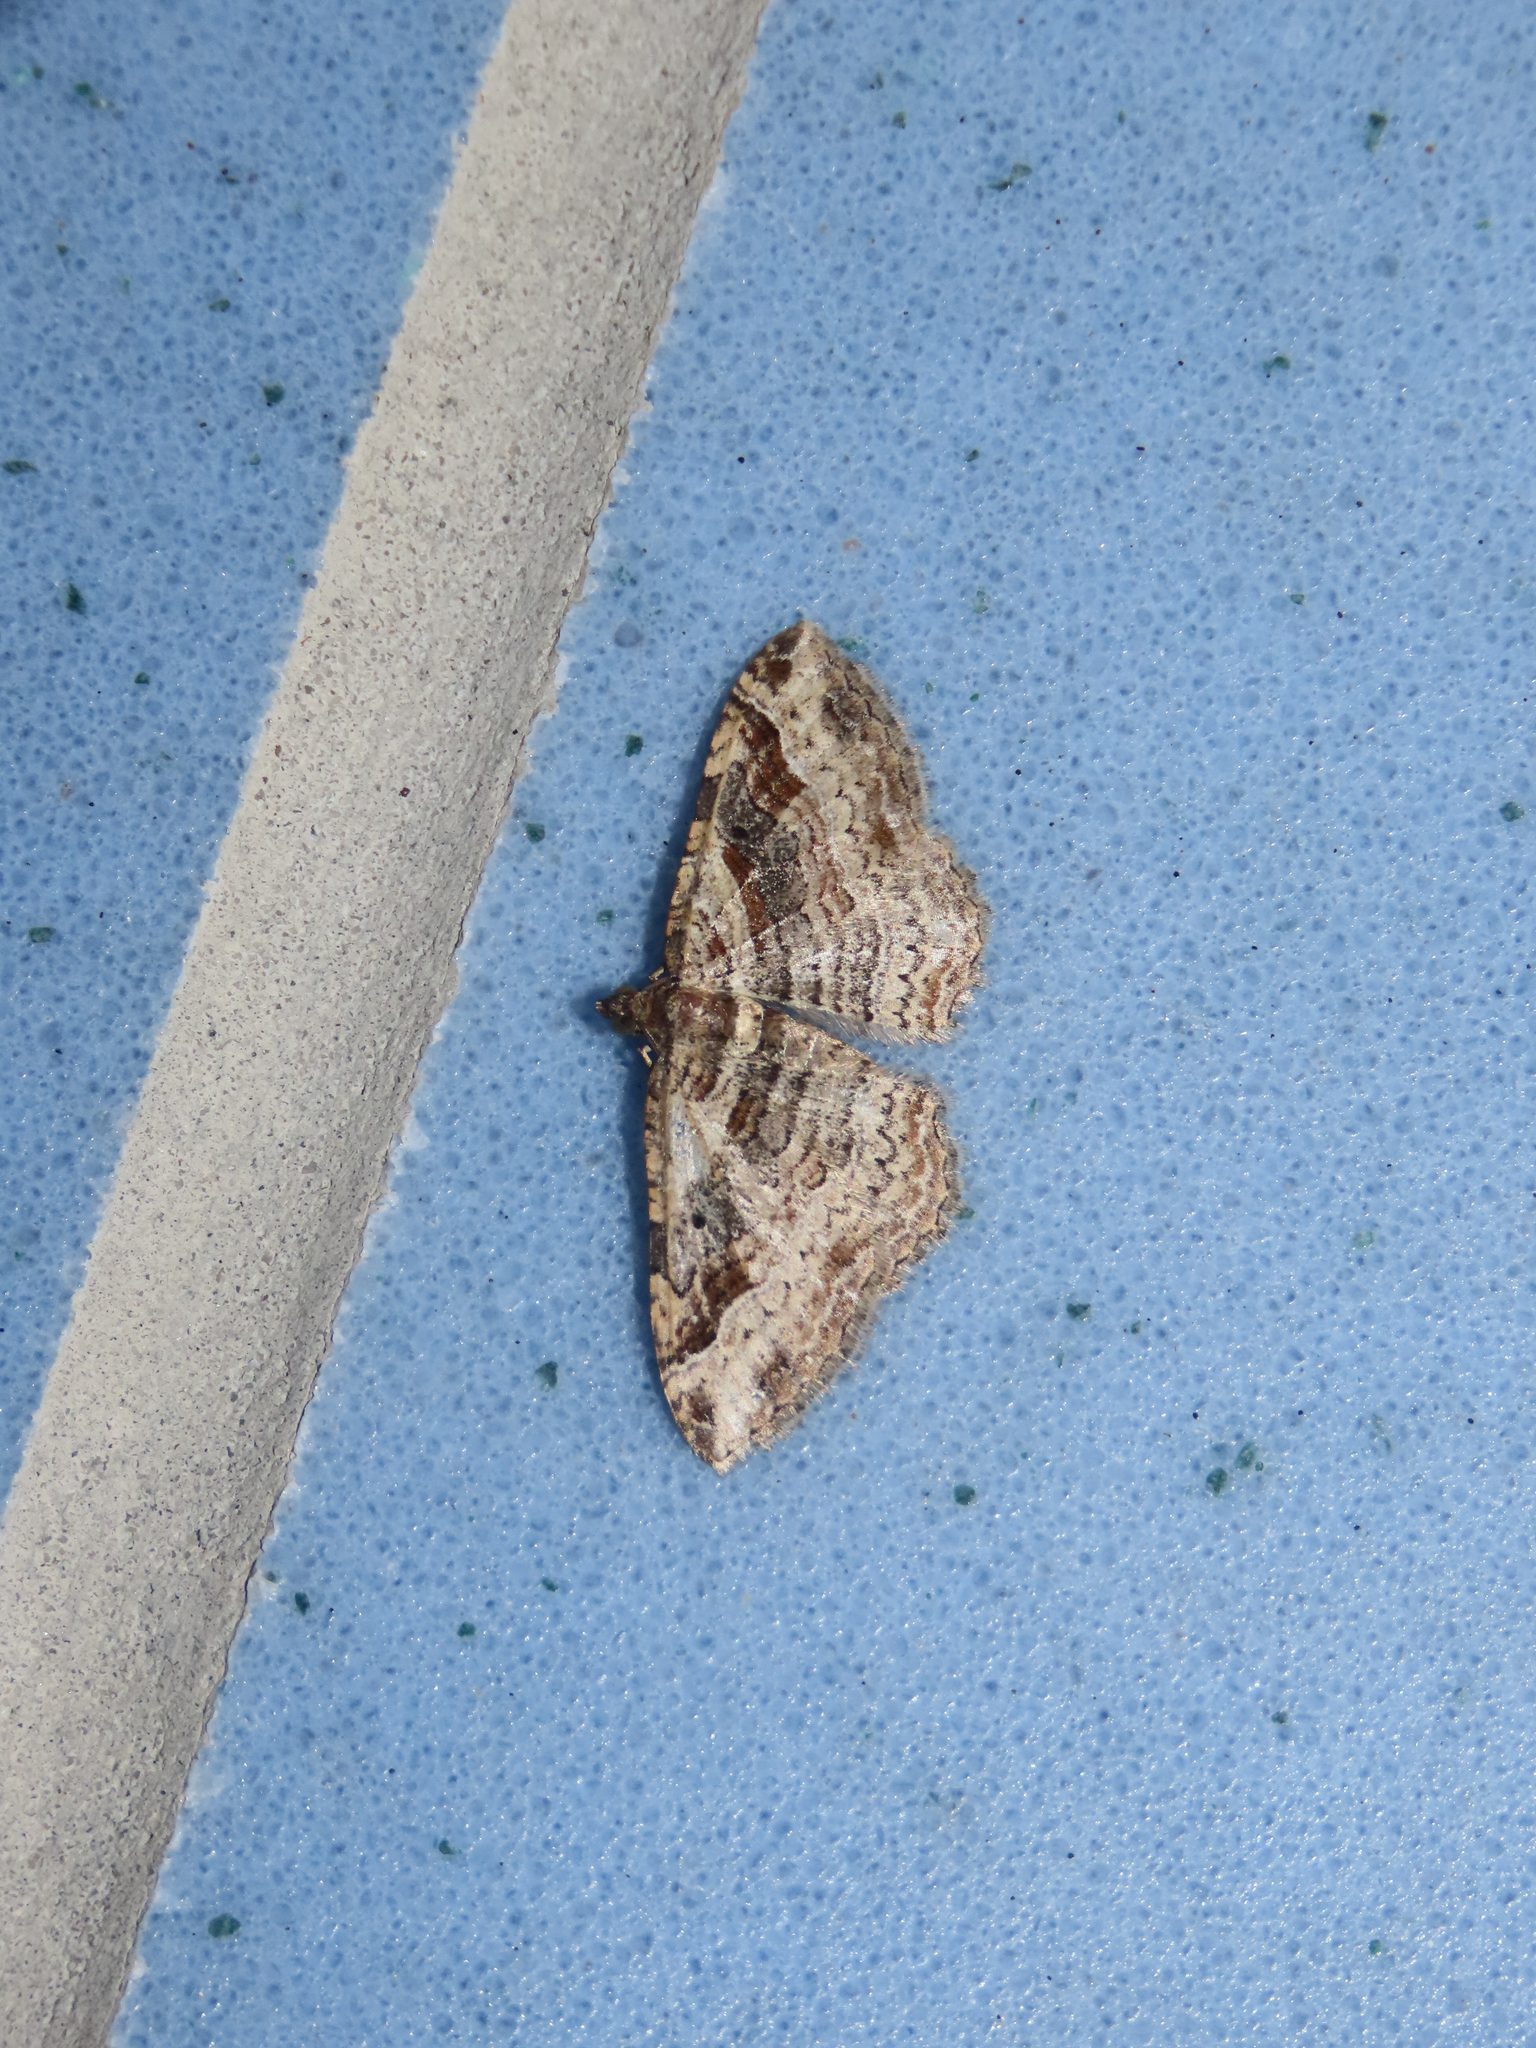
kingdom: Animalia
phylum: Arthropoda
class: Insecta
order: Lepidoptera
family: Geometridae
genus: Costaconvexa
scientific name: Costaconvexa centrostrigaria
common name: Bent-line carpet
